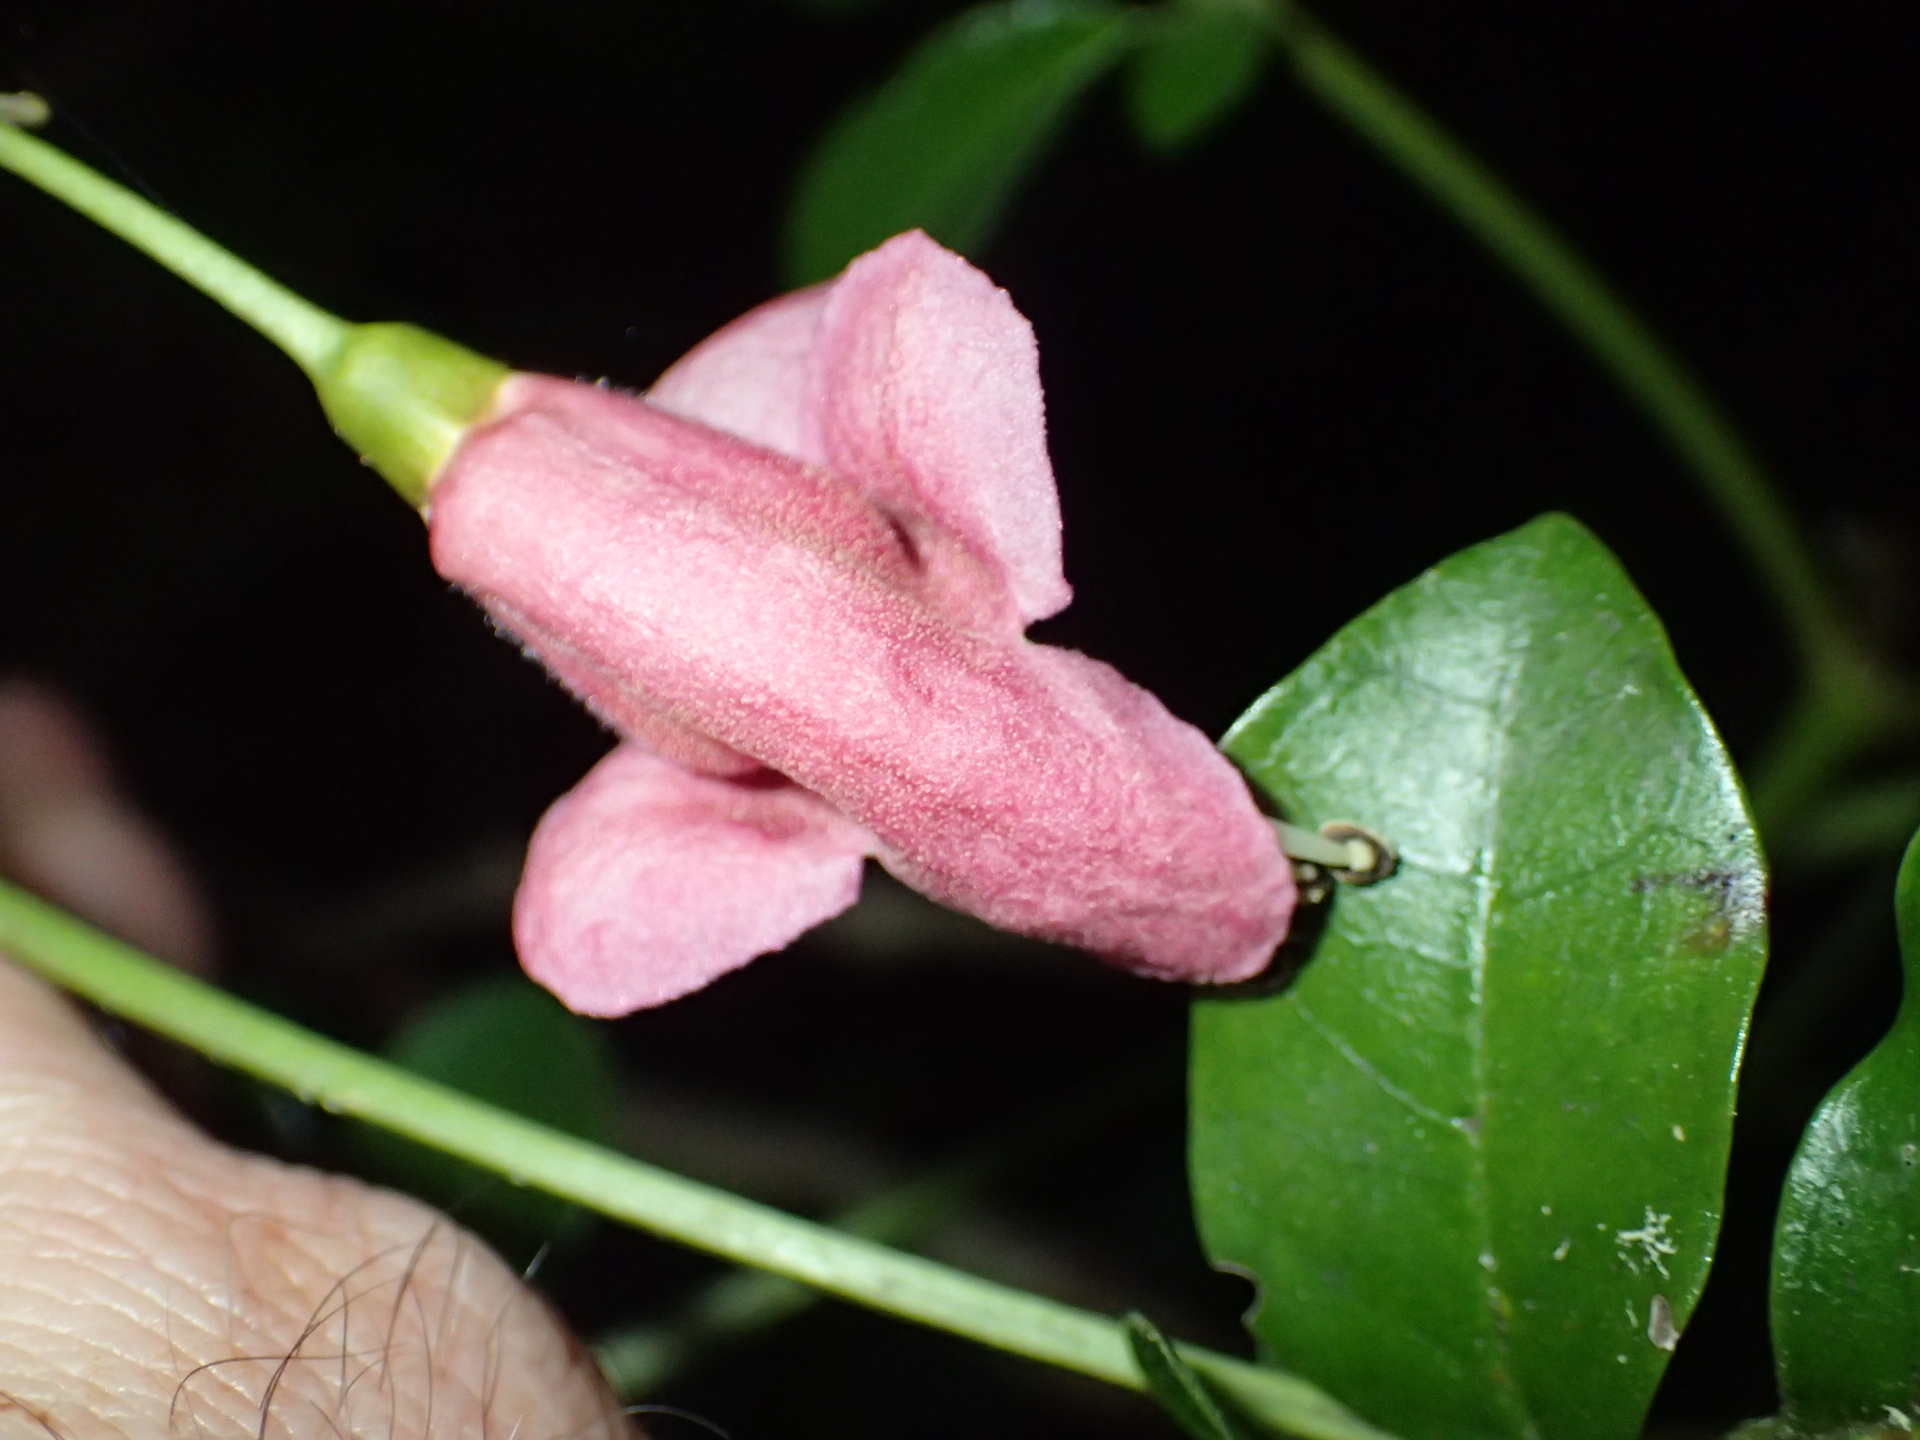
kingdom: Plantae
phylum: Tracheophyta
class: Magnoliopsida
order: Lamiales
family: Lamiaceae
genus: Vitex
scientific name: Vitex lucens
